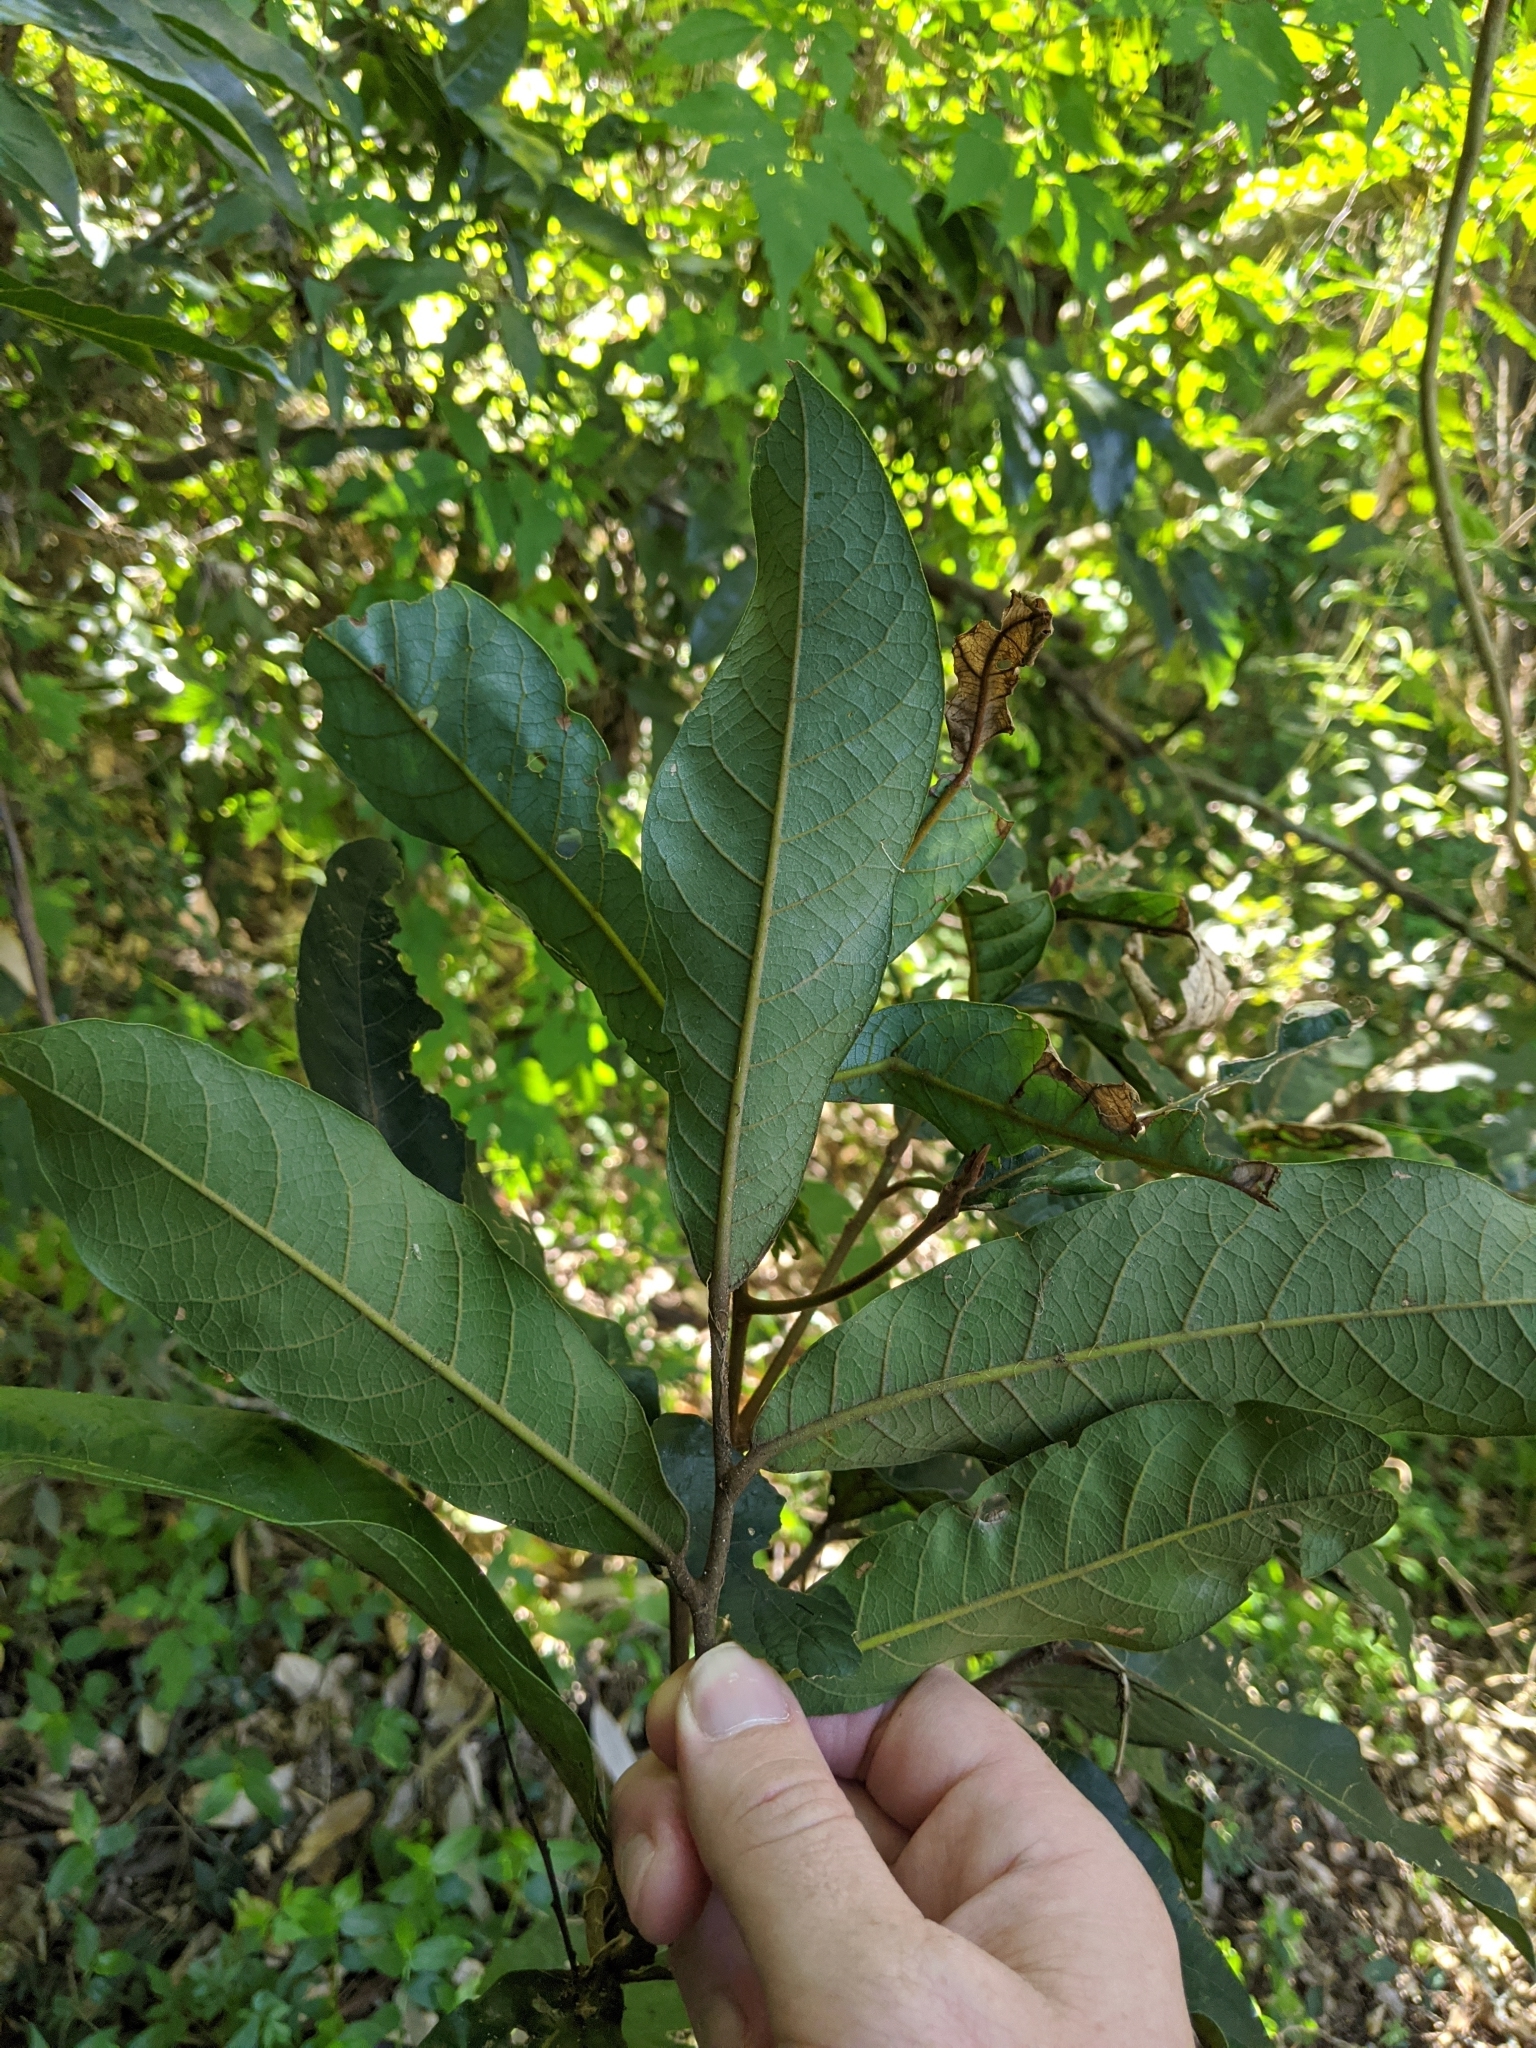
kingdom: Plantae
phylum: Tracheophyta
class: Magnoliopsida
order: Laurales
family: Lauraceae
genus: Cryptocarya
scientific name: Cryptocarya obovata
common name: Pepperberry-tree
